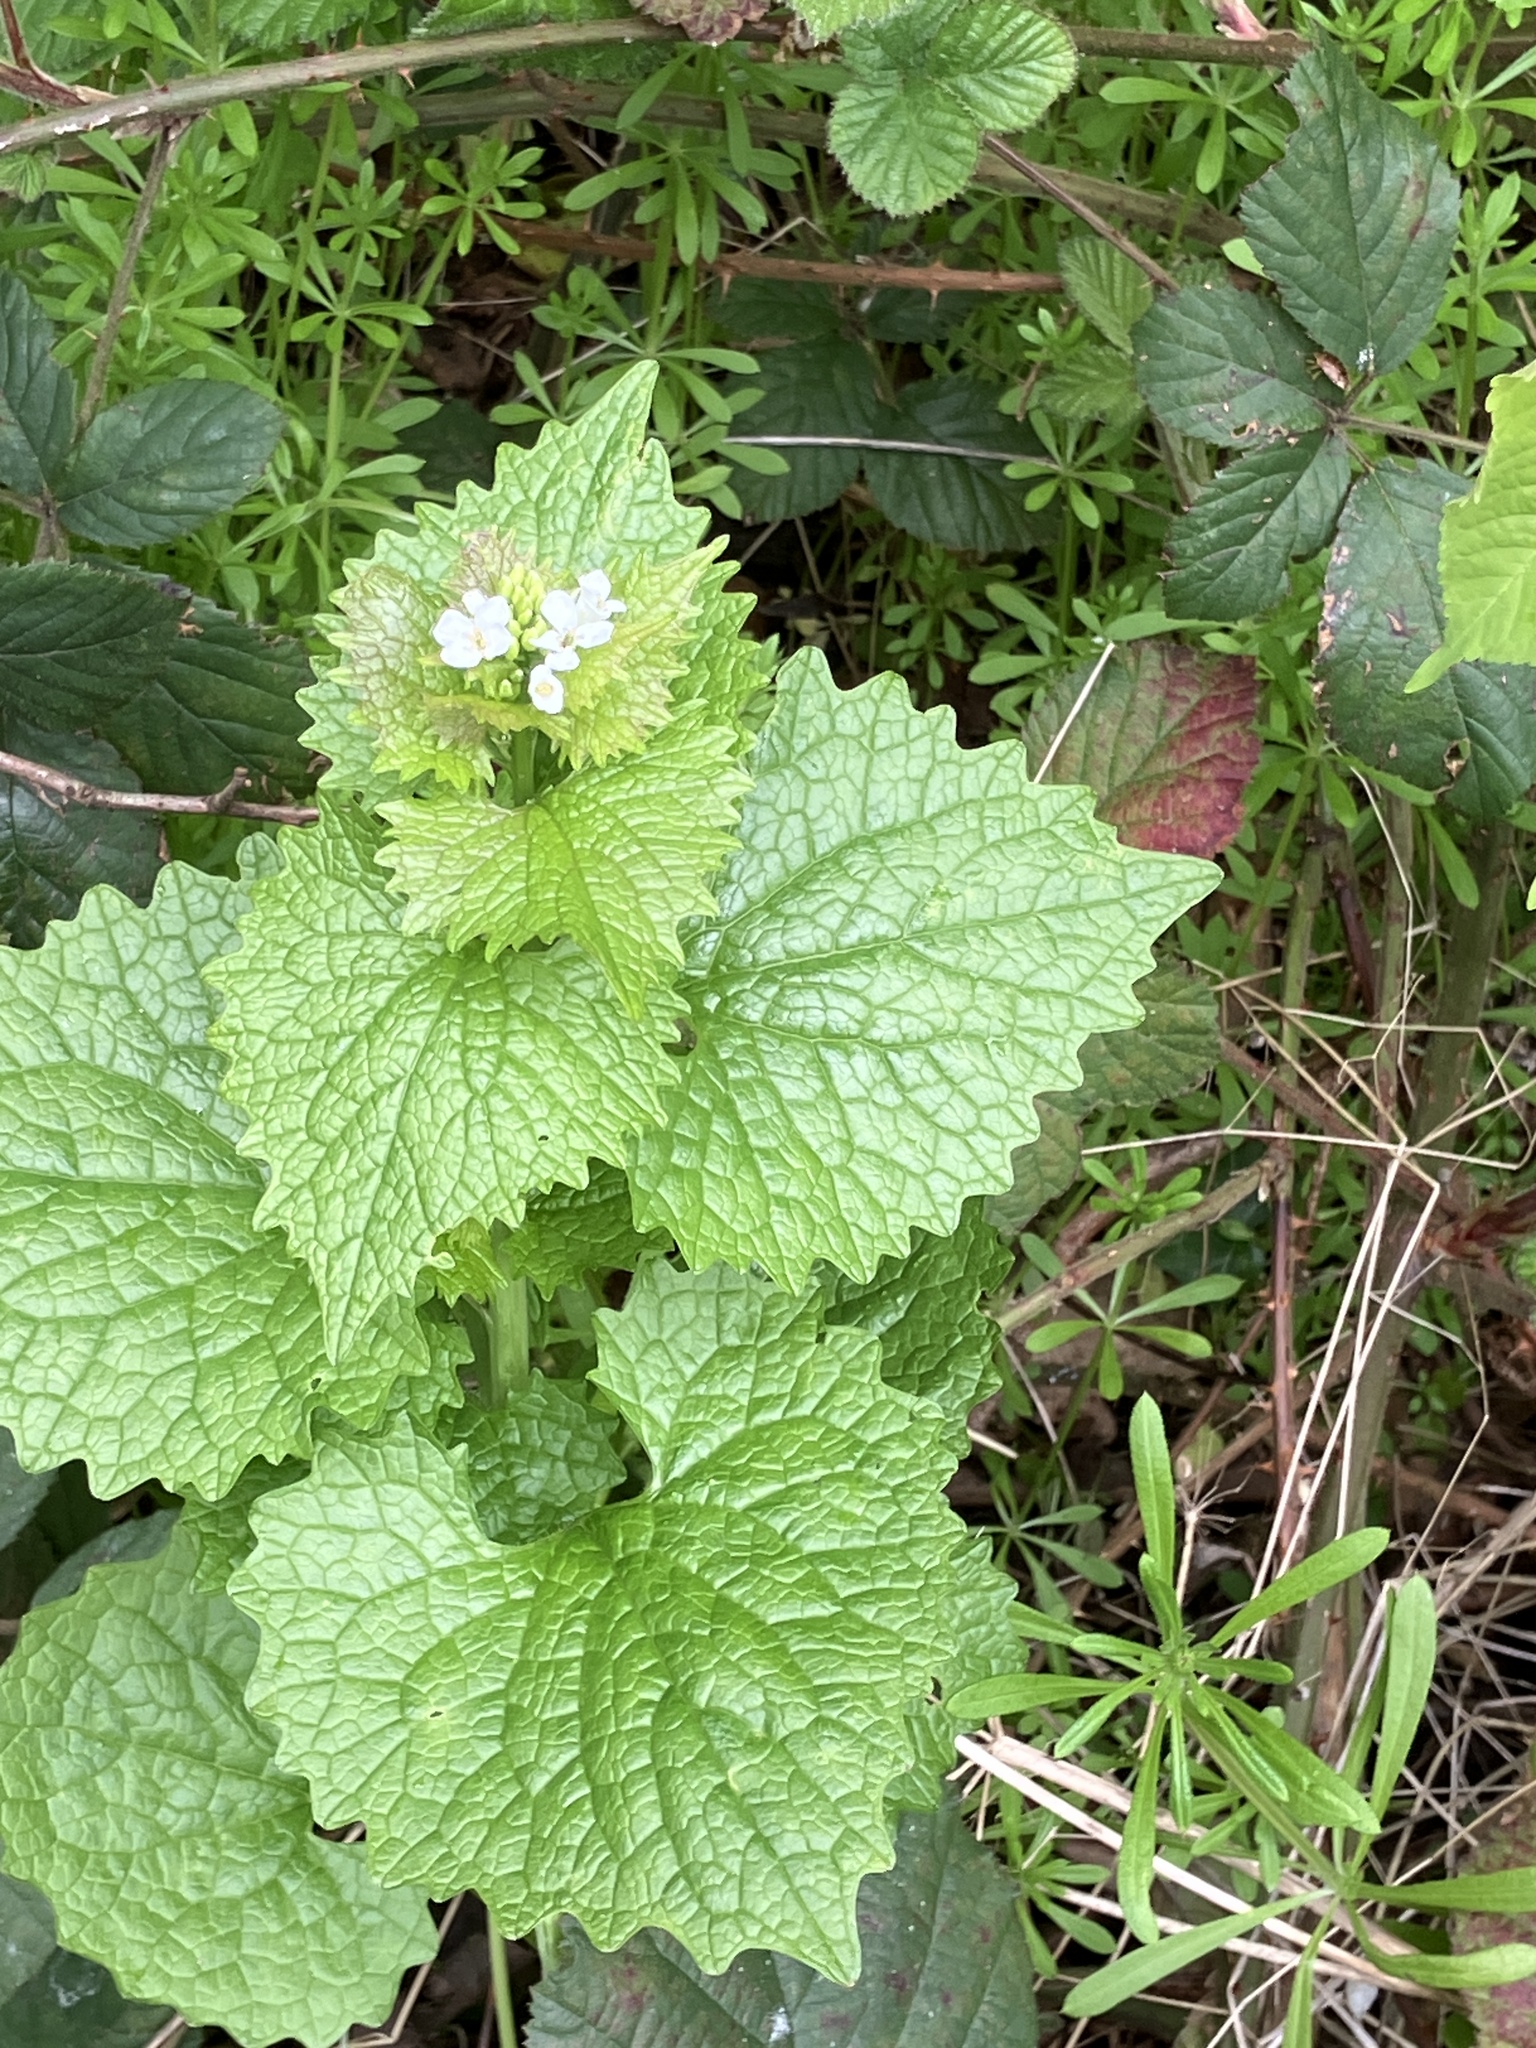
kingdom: Plantae
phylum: Tracheophyta
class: Magnoliopsida
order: Brassicales
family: Brassicaceae
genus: Alliaria
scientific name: Alliaria petiolata
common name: Garlic mustard
